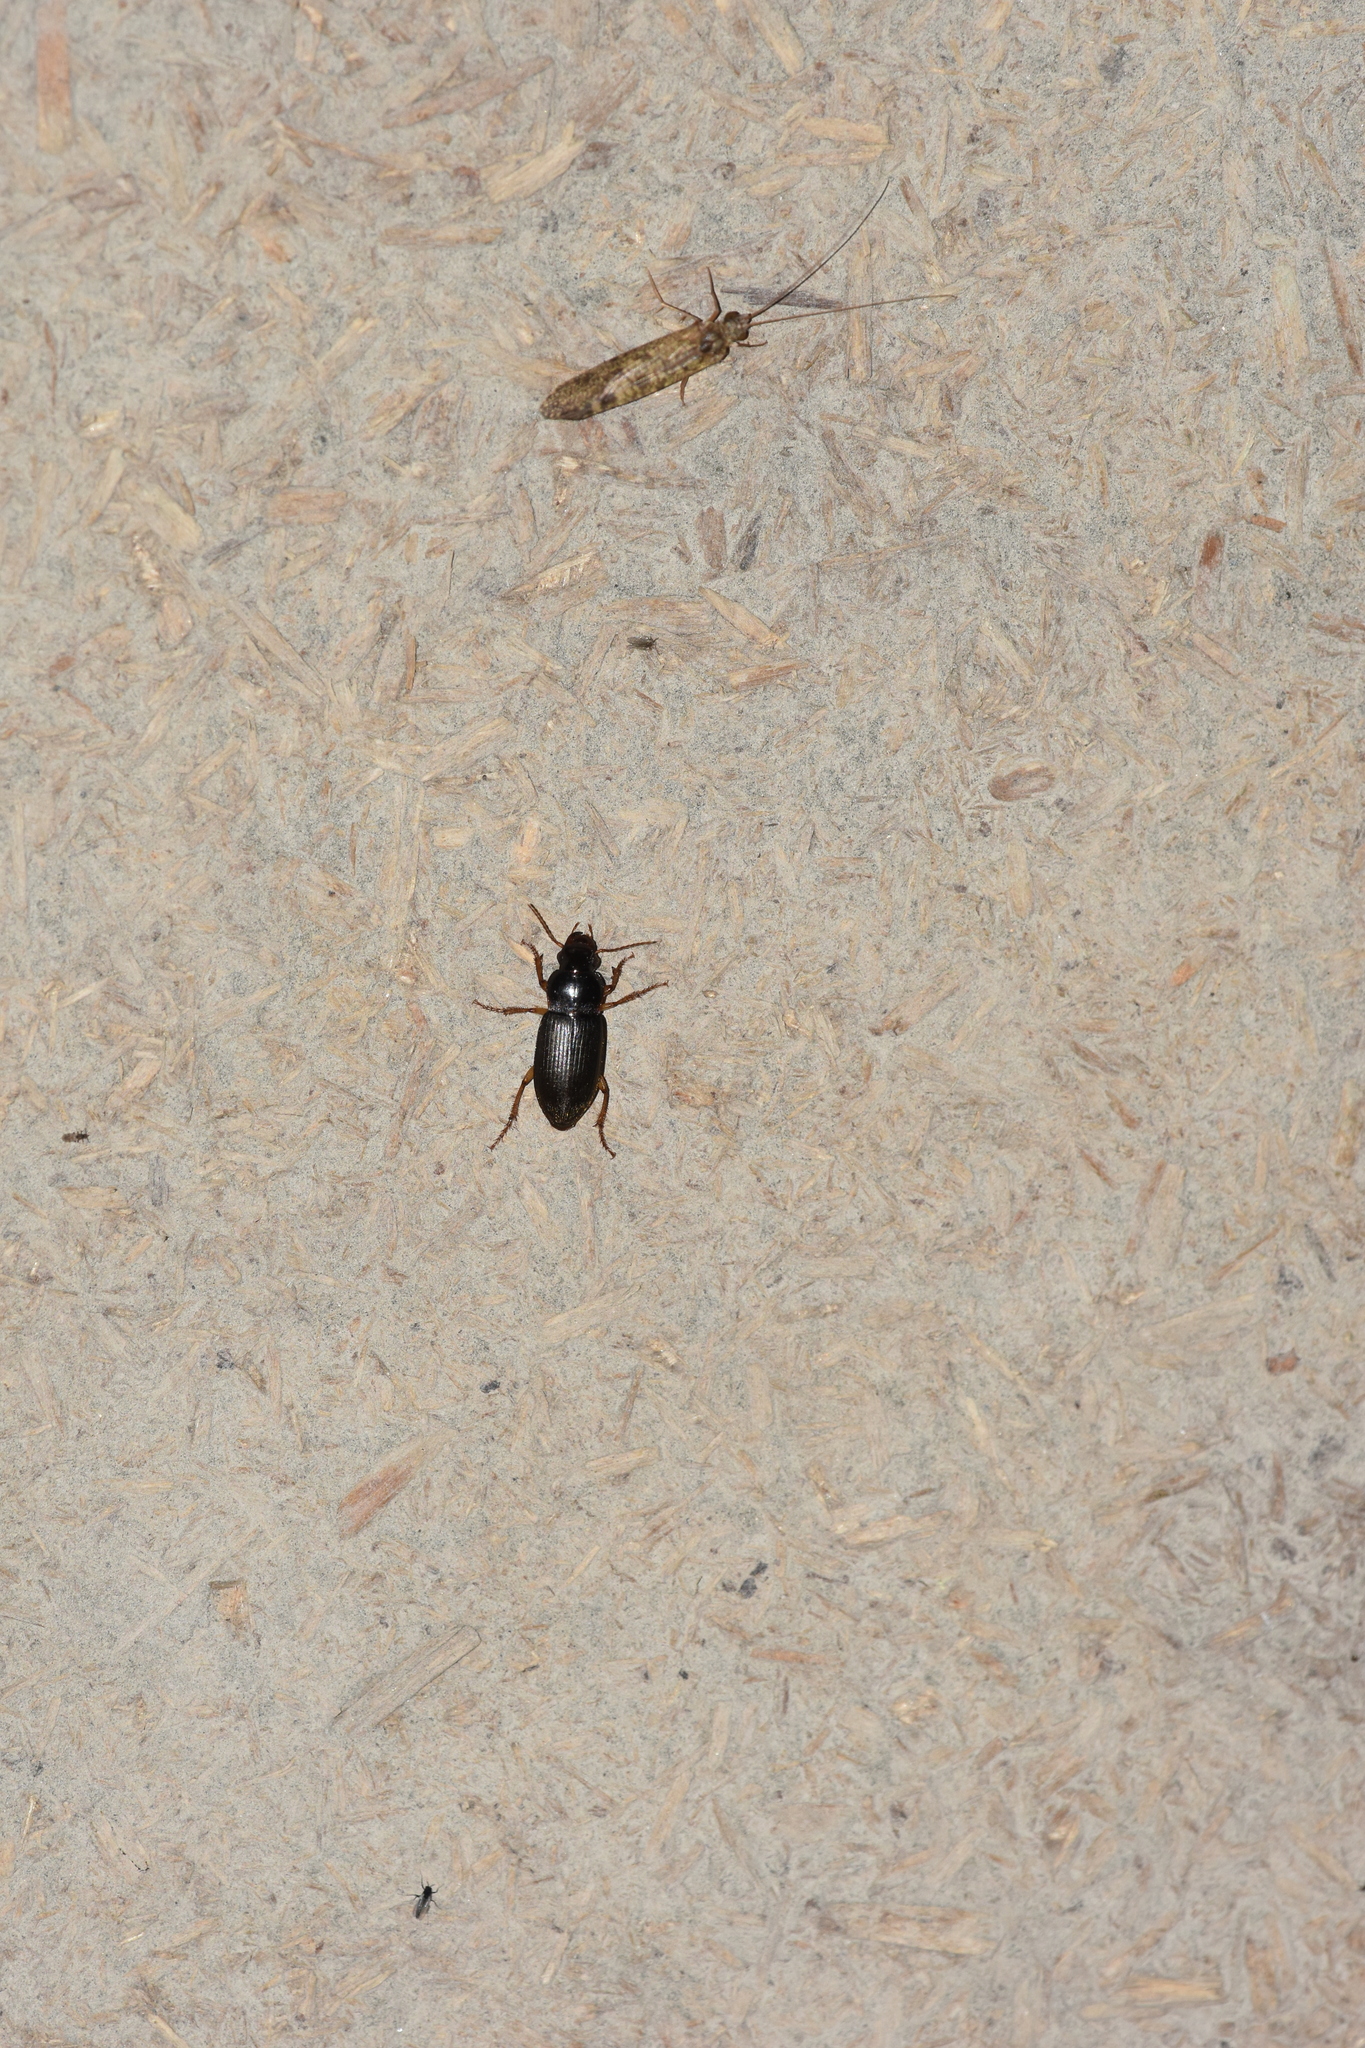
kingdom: Animalia
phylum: Arthropoda
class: Insecta
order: Coleoptera
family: Carabidae
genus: Harpalus
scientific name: Harpalus griseus
